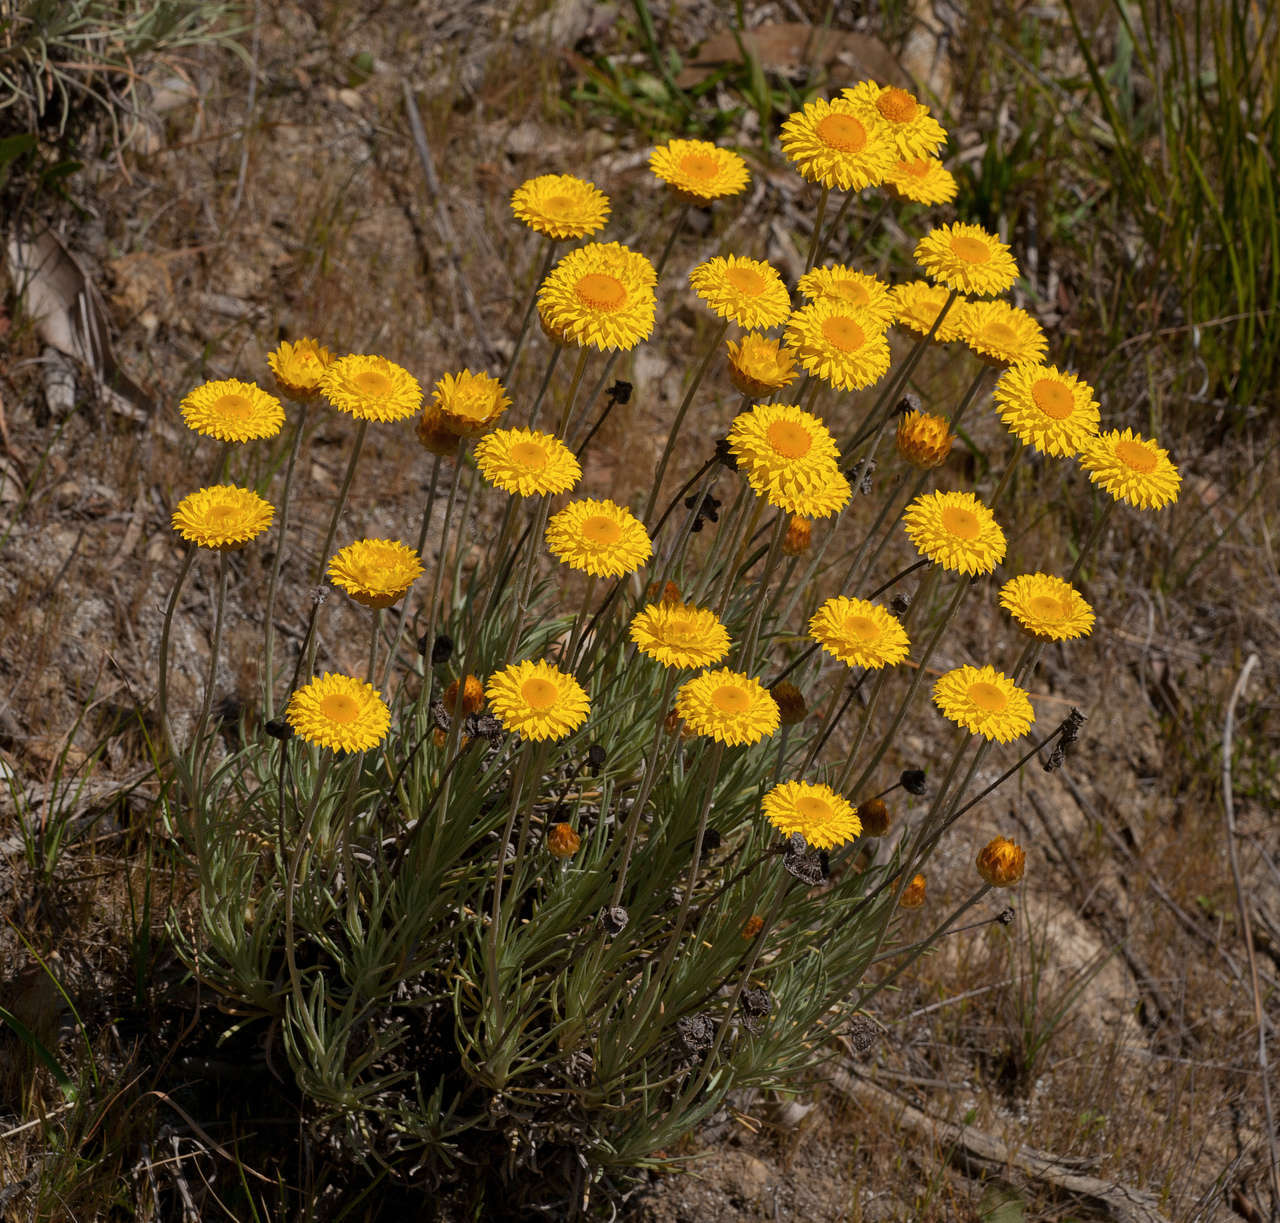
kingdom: Plantae
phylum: Tracheophyta
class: Magnoliopsida
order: Asterales
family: Asteraceae
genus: Leucochrysum
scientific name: Leucochrysum albicans
